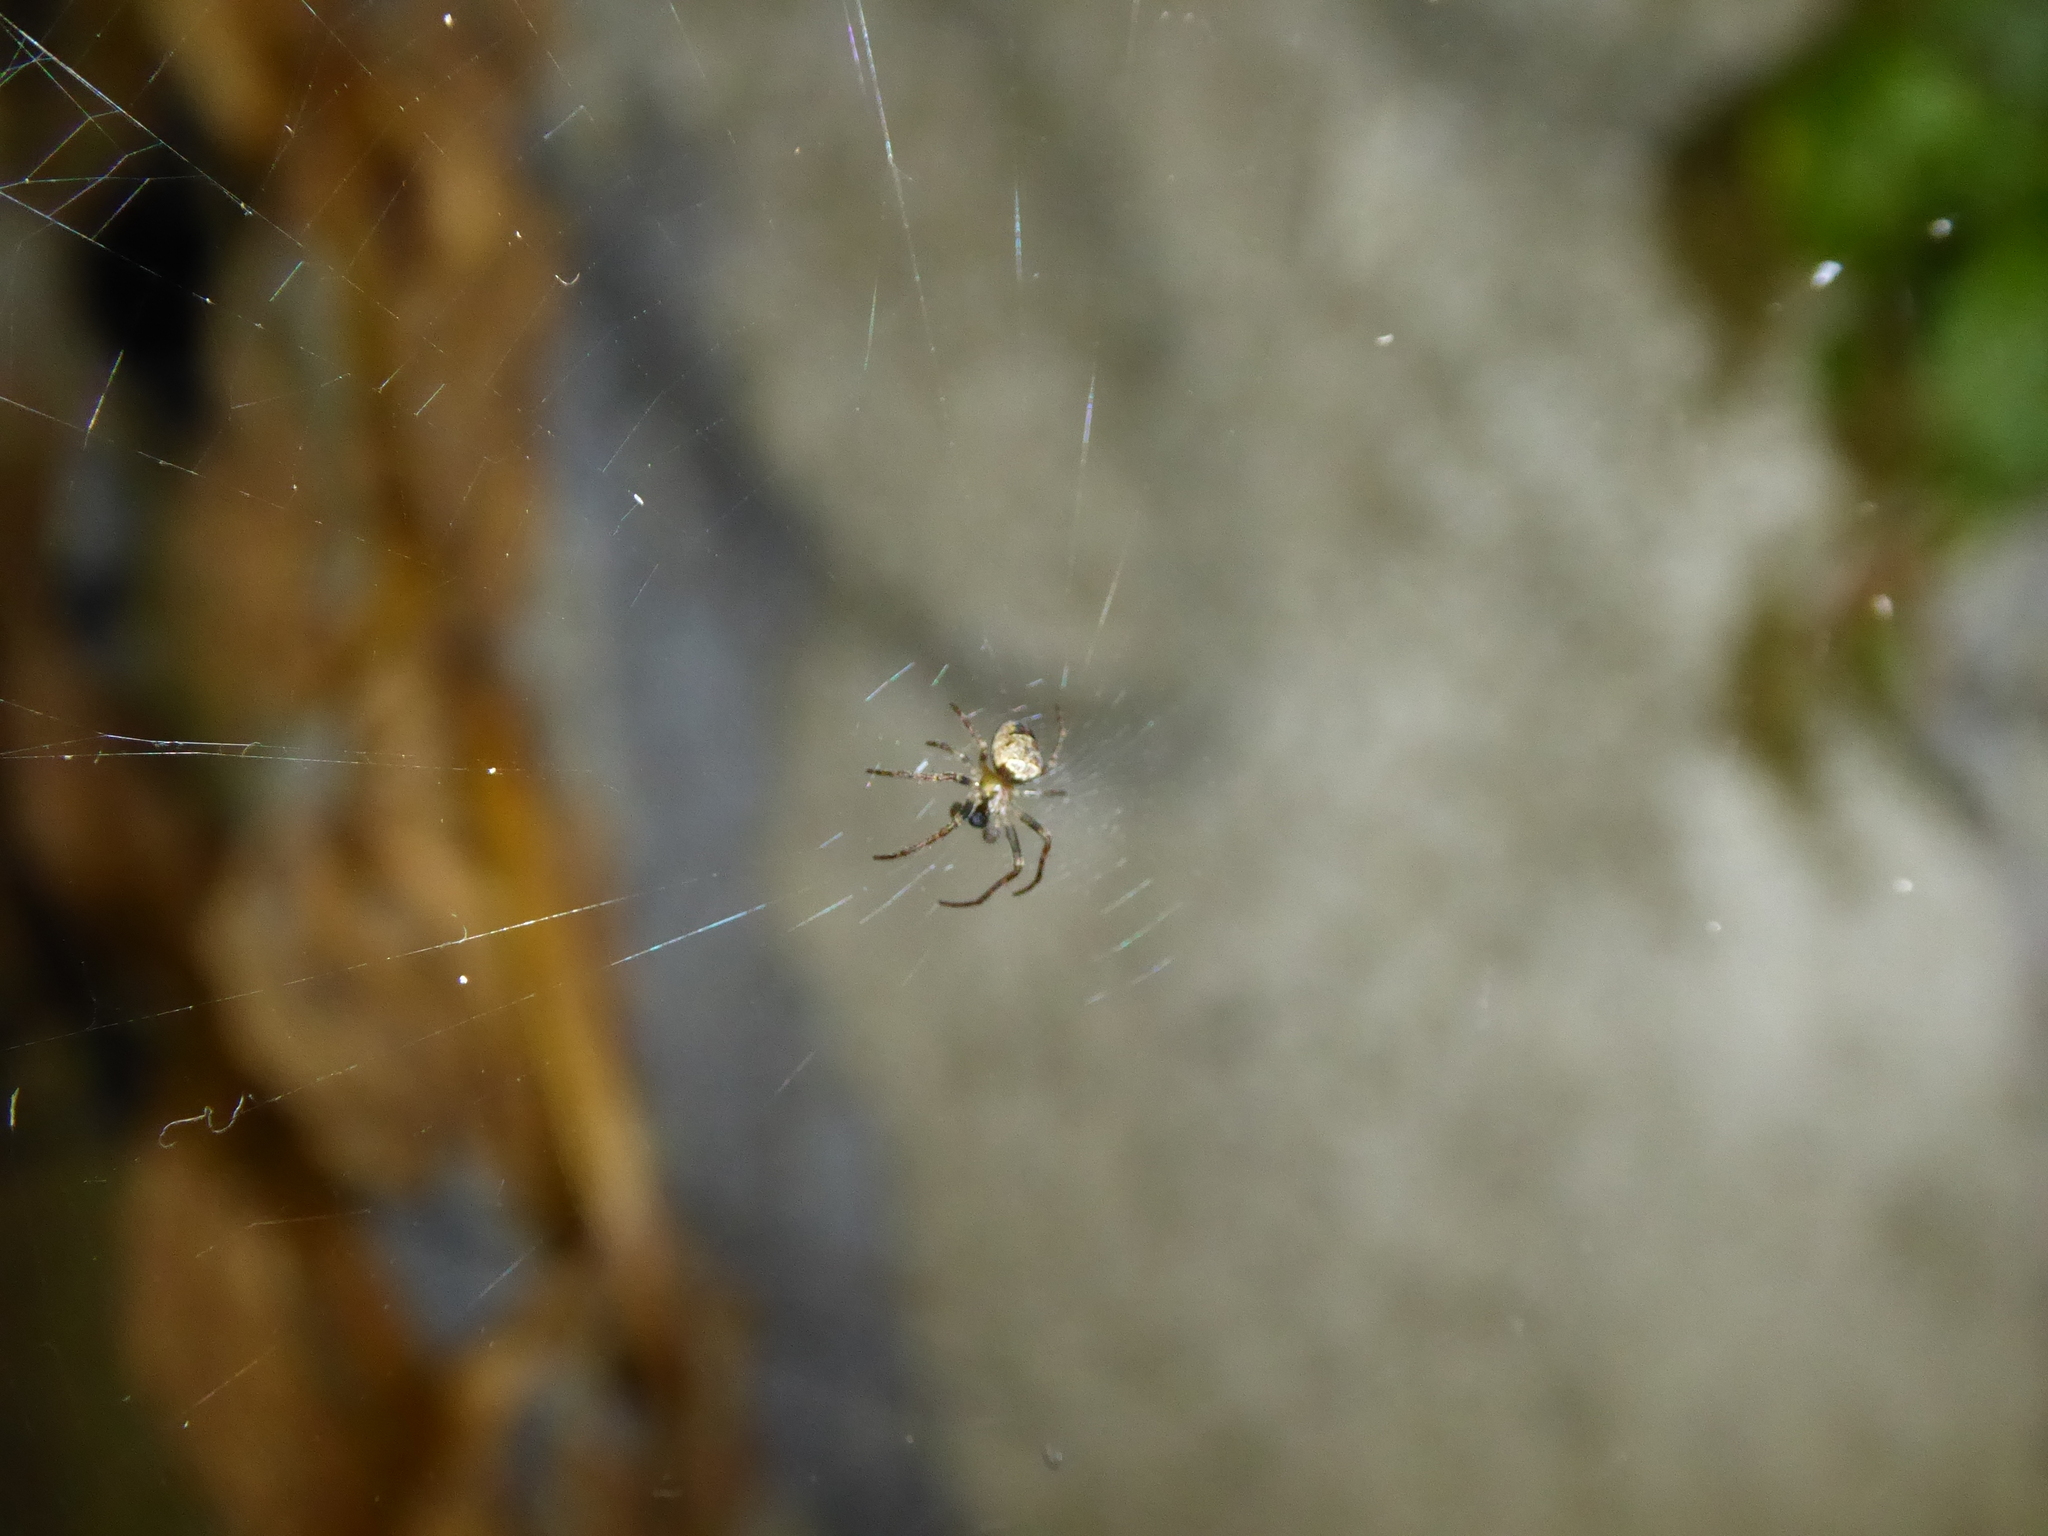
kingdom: Animalia
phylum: Arthropoda
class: Arachnida
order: Araneae
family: Araneidae
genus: Zilla
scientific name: Zilla diodia
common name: Zilla diodia
